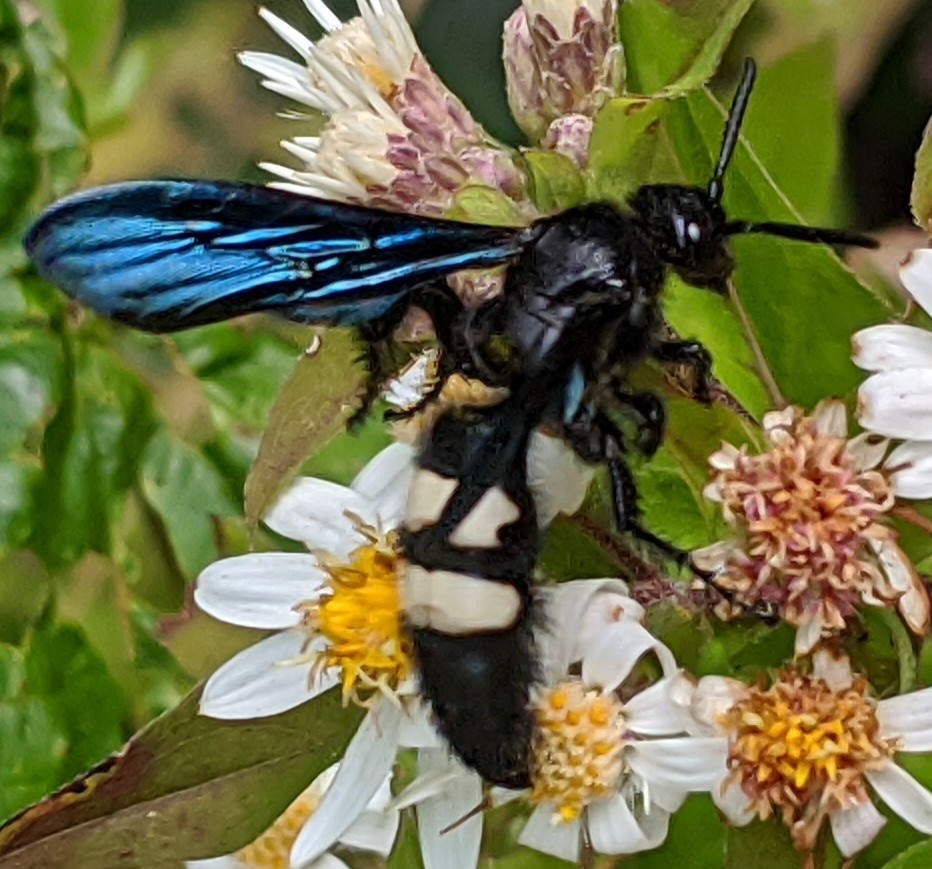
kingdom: Animalia
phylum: Arthropoda
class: Insecta
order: Hymenoptera
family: Scoliidae
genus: Scolia
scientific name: Scolia bicincta
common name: Double-banded scoliid wasp
